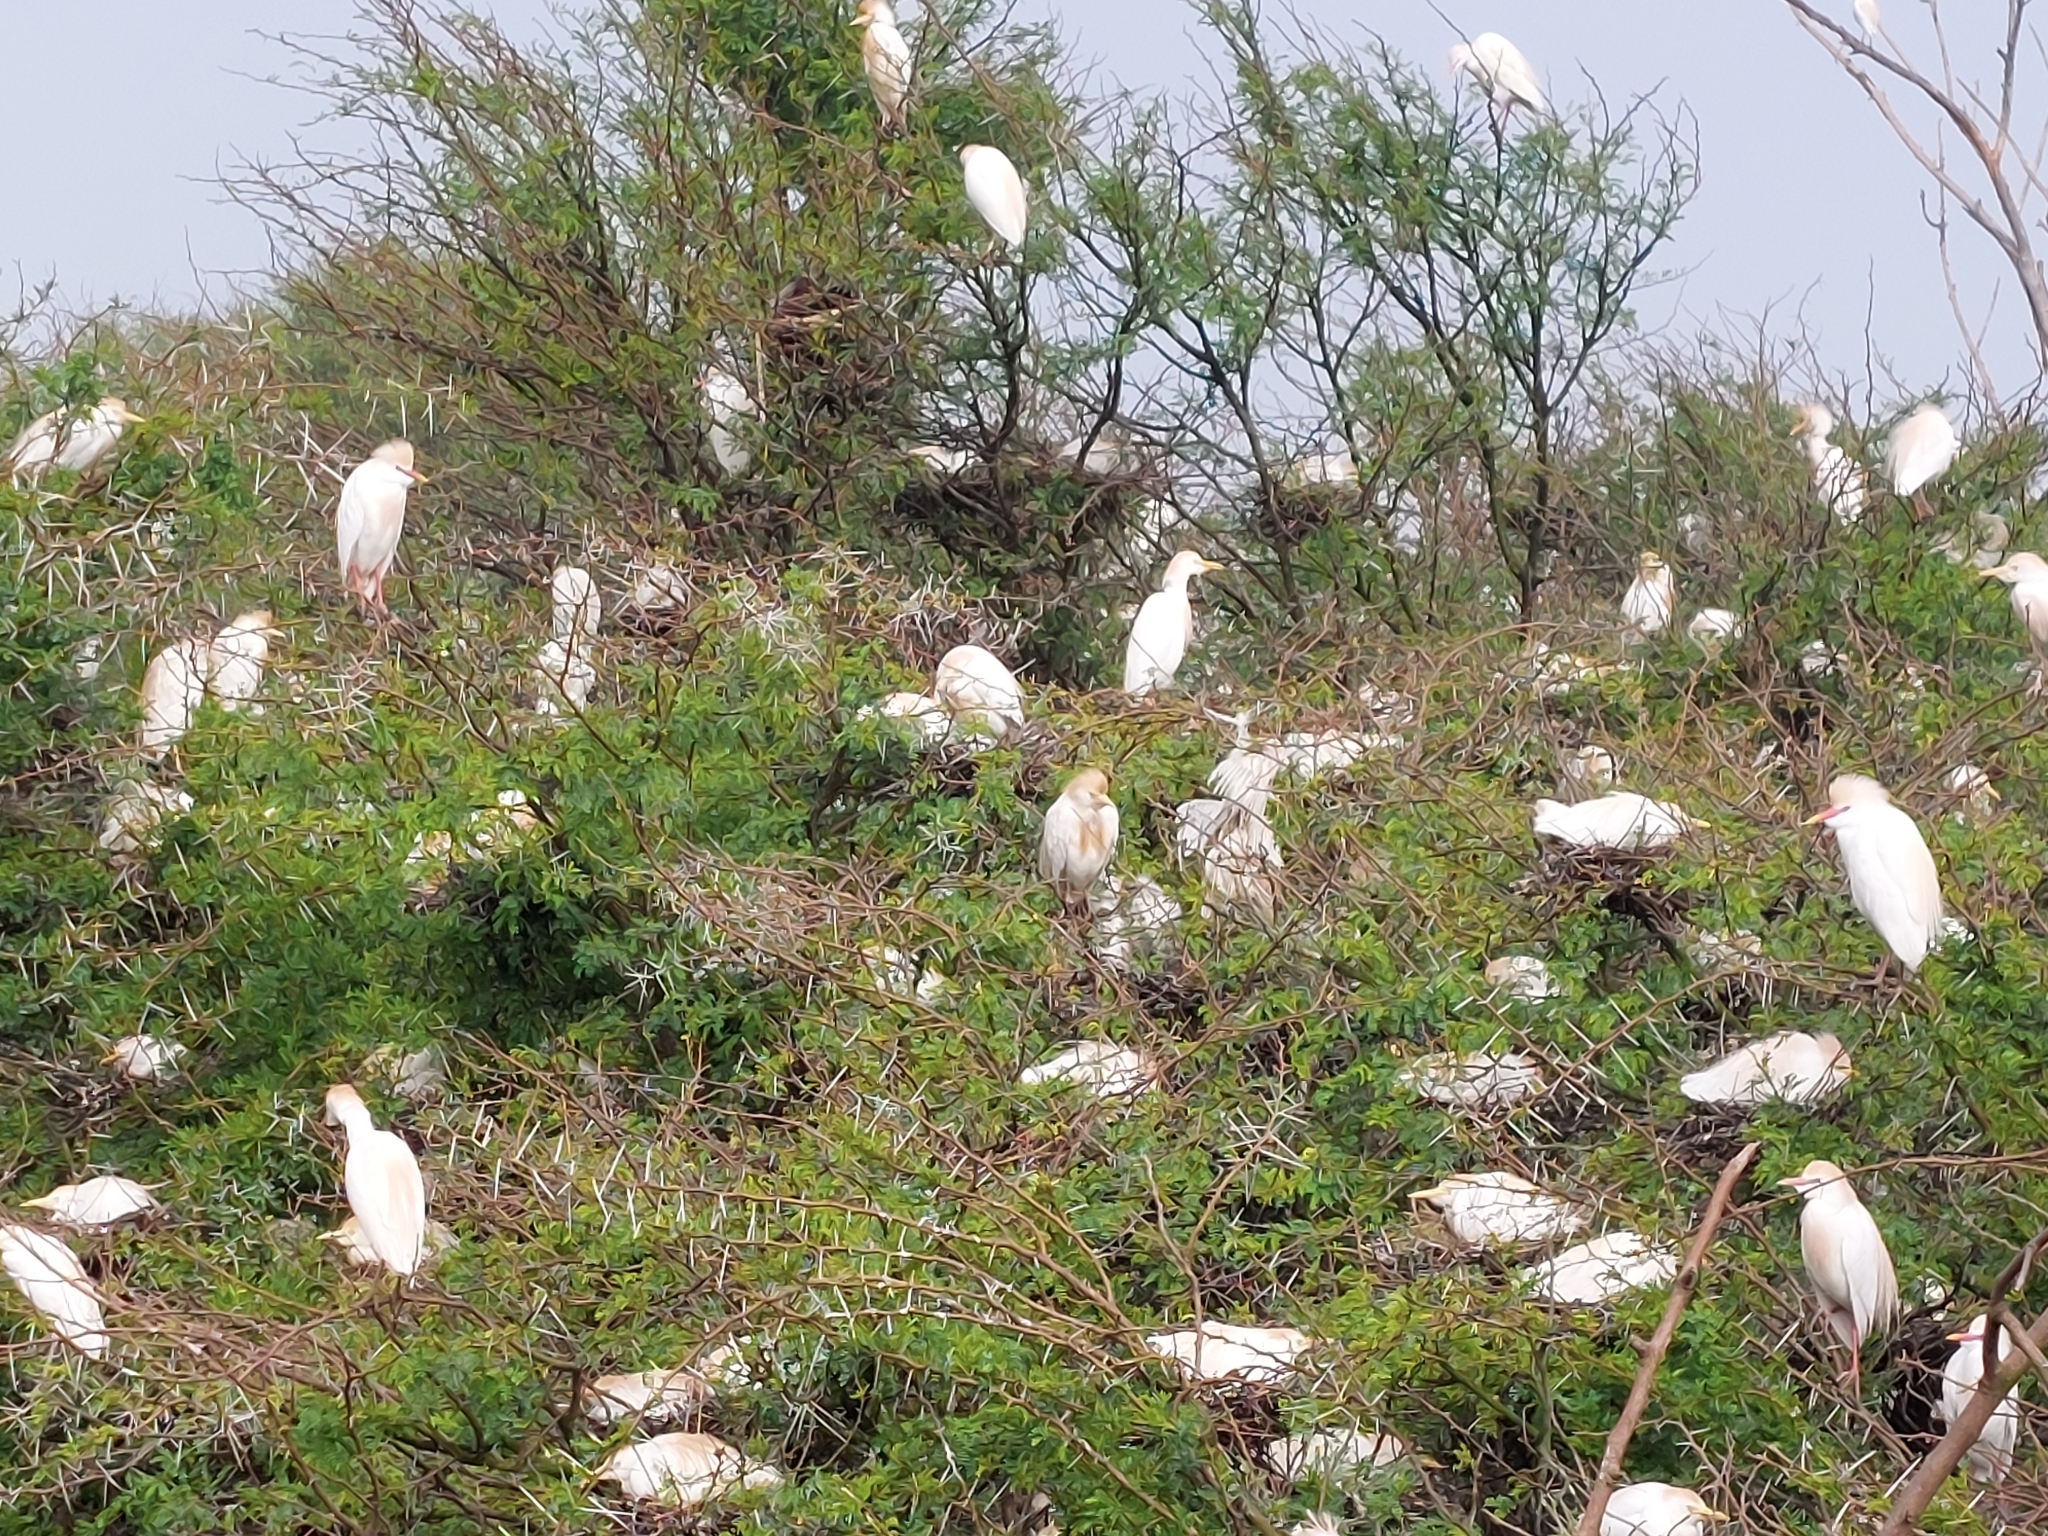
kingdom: Animalia
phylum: Chordata
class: Aves
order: Pelecaniformes
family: Ardeidae
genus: Bubulcus
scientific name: Bubulcus ibis
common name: Cattle egret
